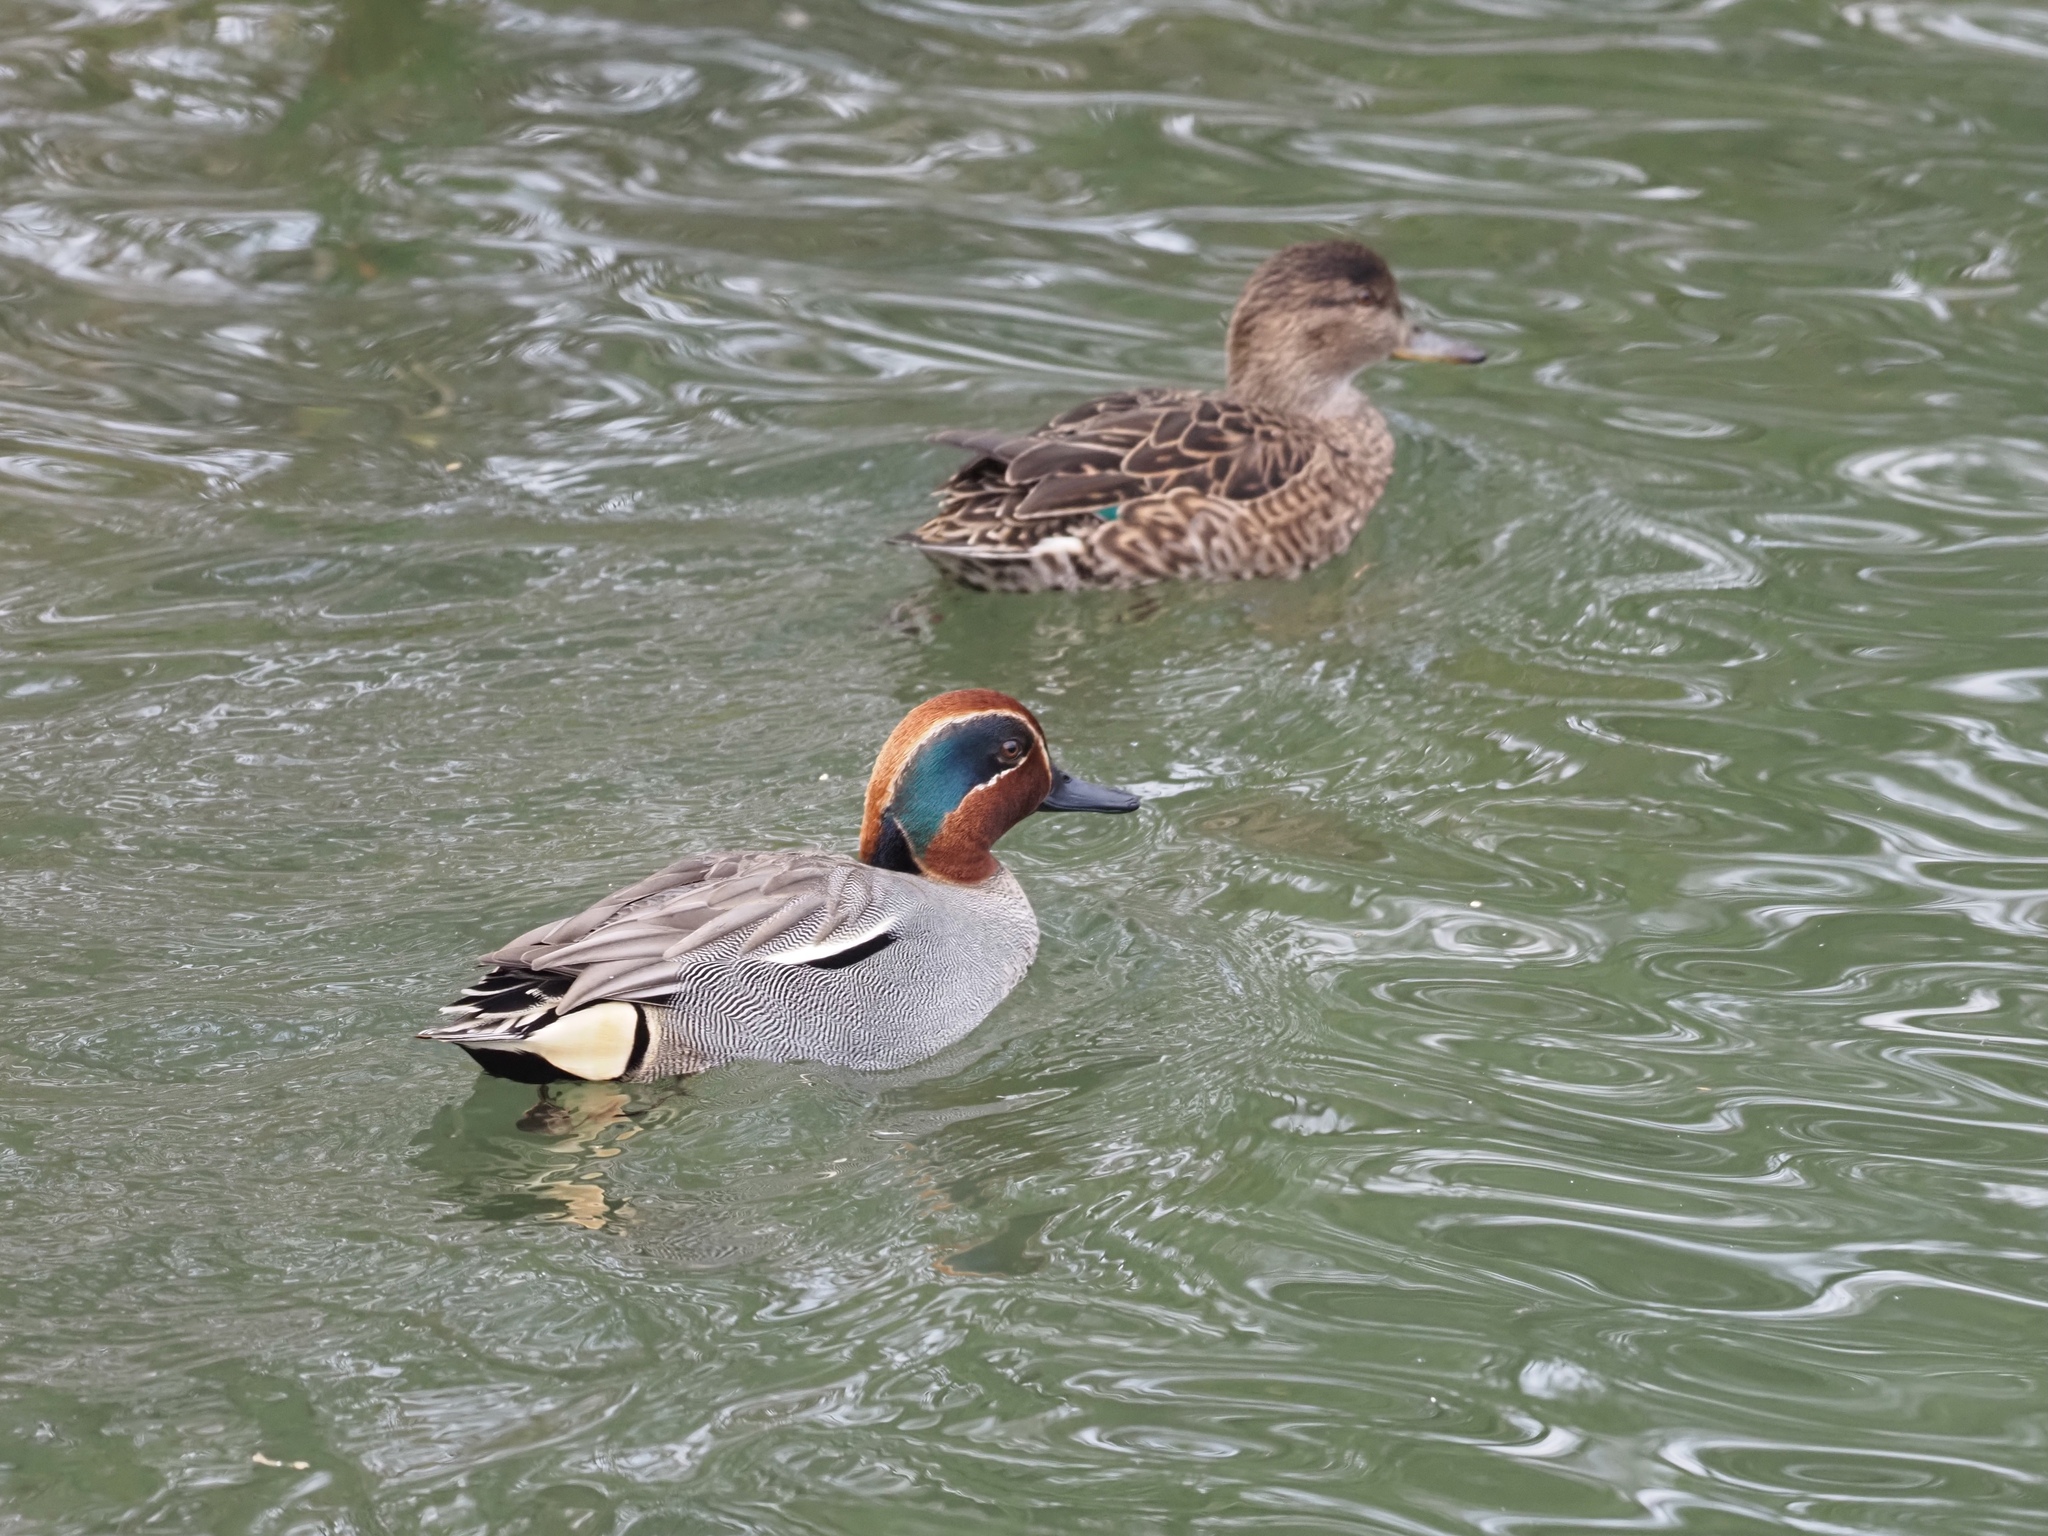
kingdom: Animalia
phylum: Chordata
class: Aves
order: Anseriformes
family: Anatidae
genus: Anas
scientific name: Anas crecca
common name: Eurasian teal
